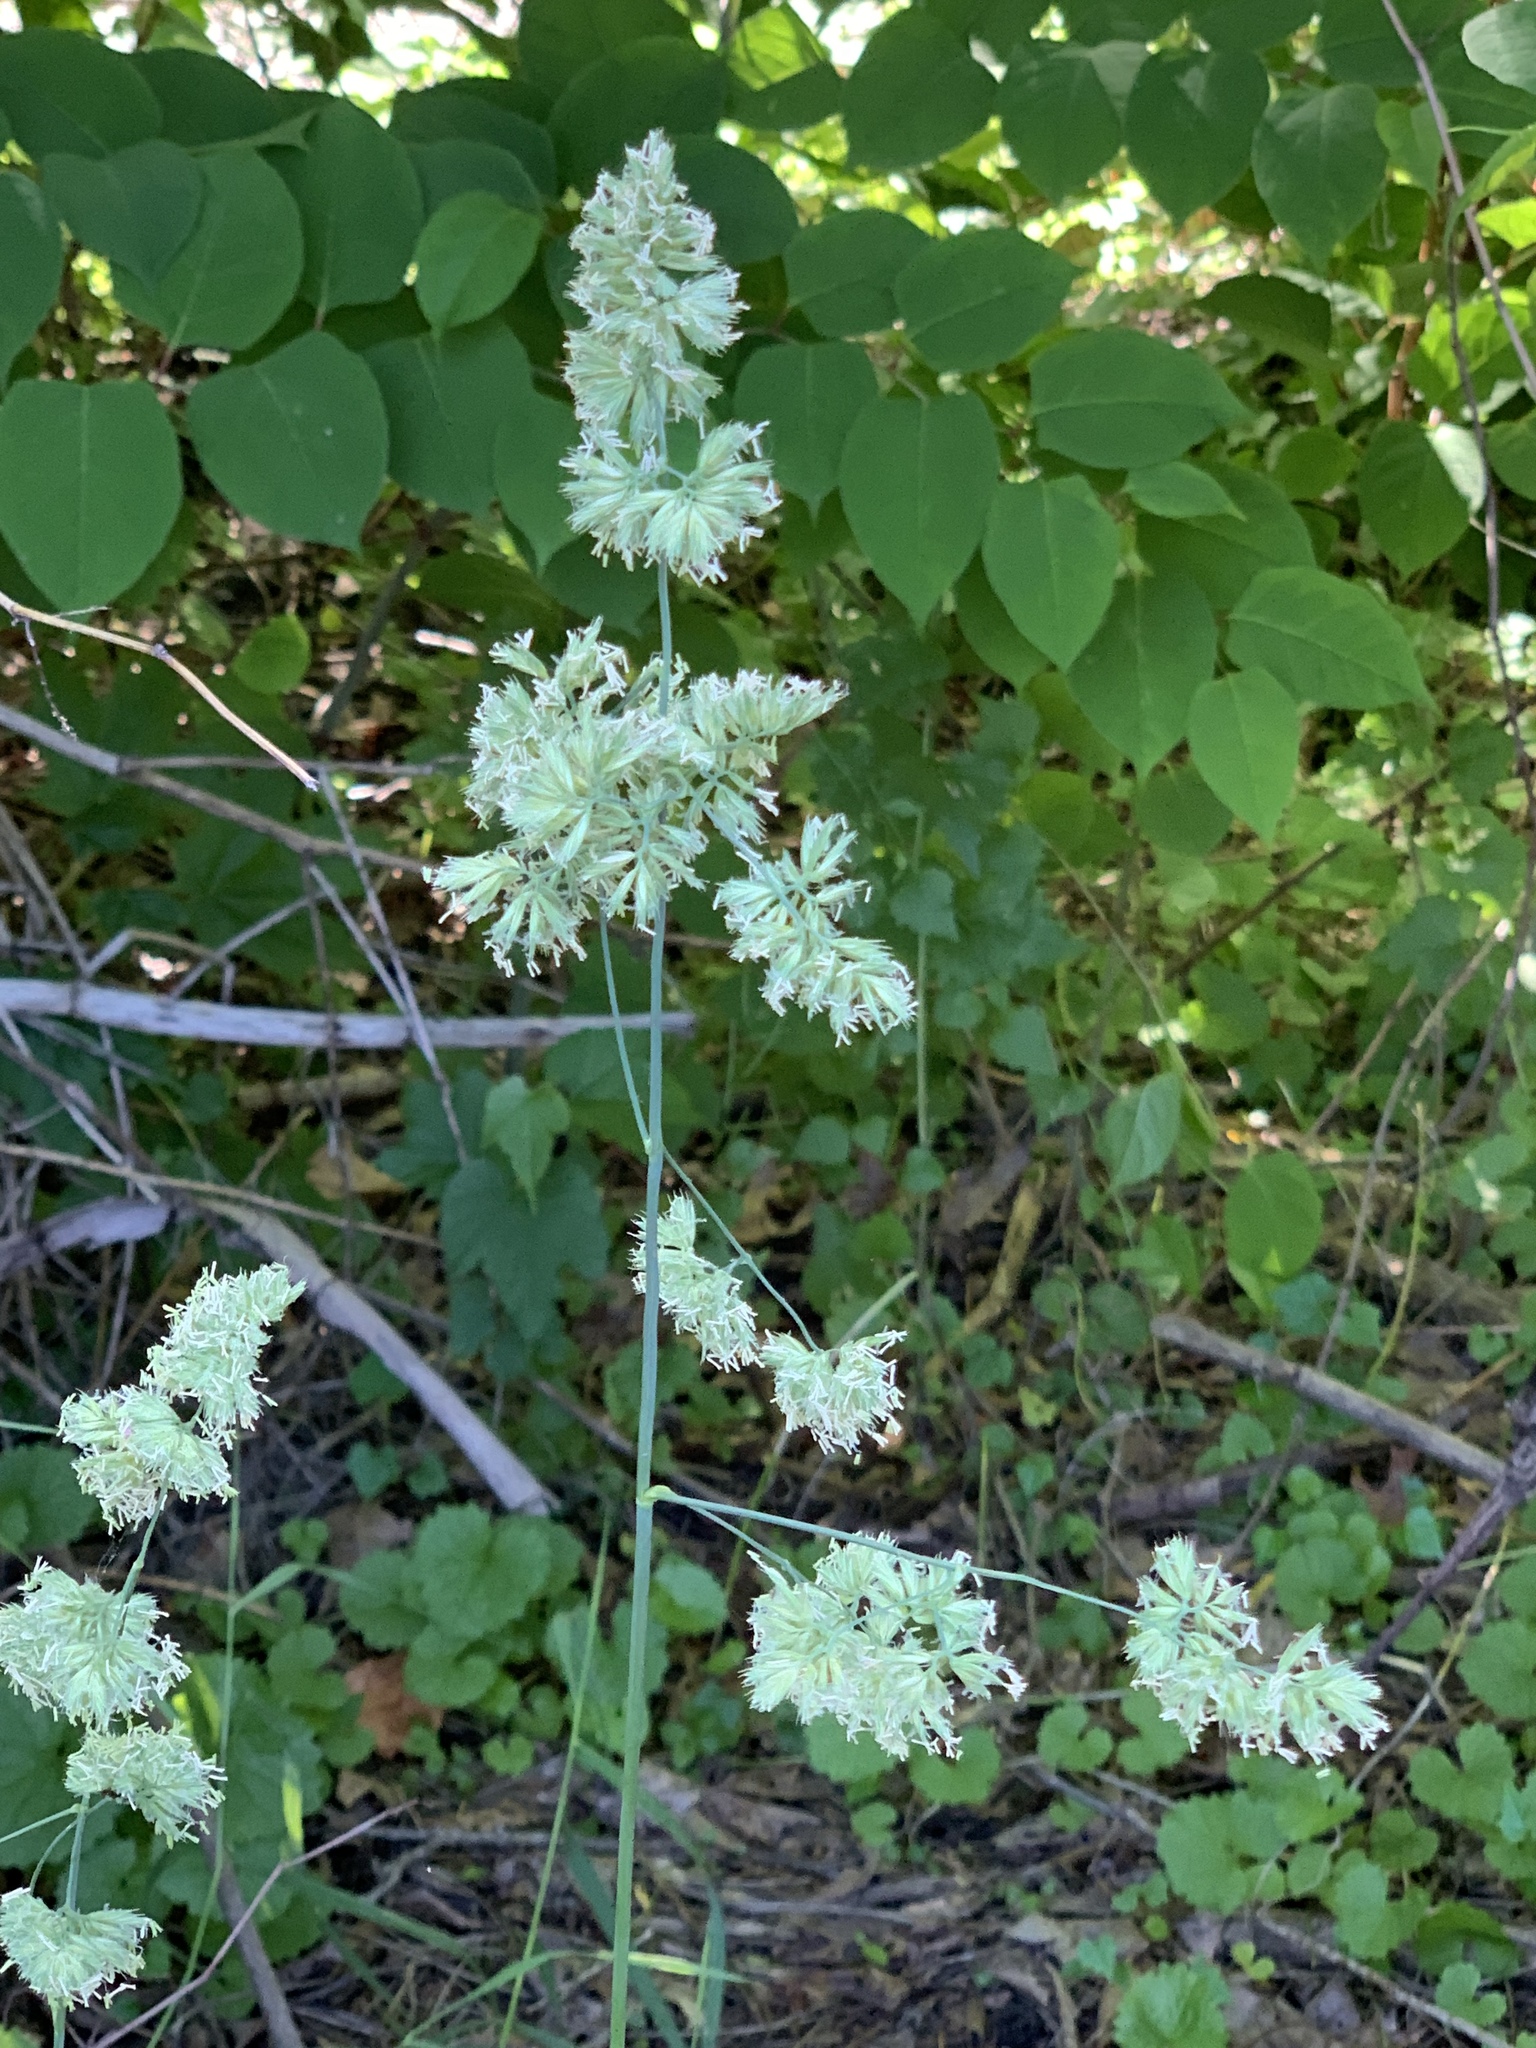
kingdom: Plantae
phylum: Tracheophyta
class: Liliopsida
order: Poales
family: Poaceae
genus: Dactylis
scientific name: Dactylis glomerata
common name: Orchardgrass
